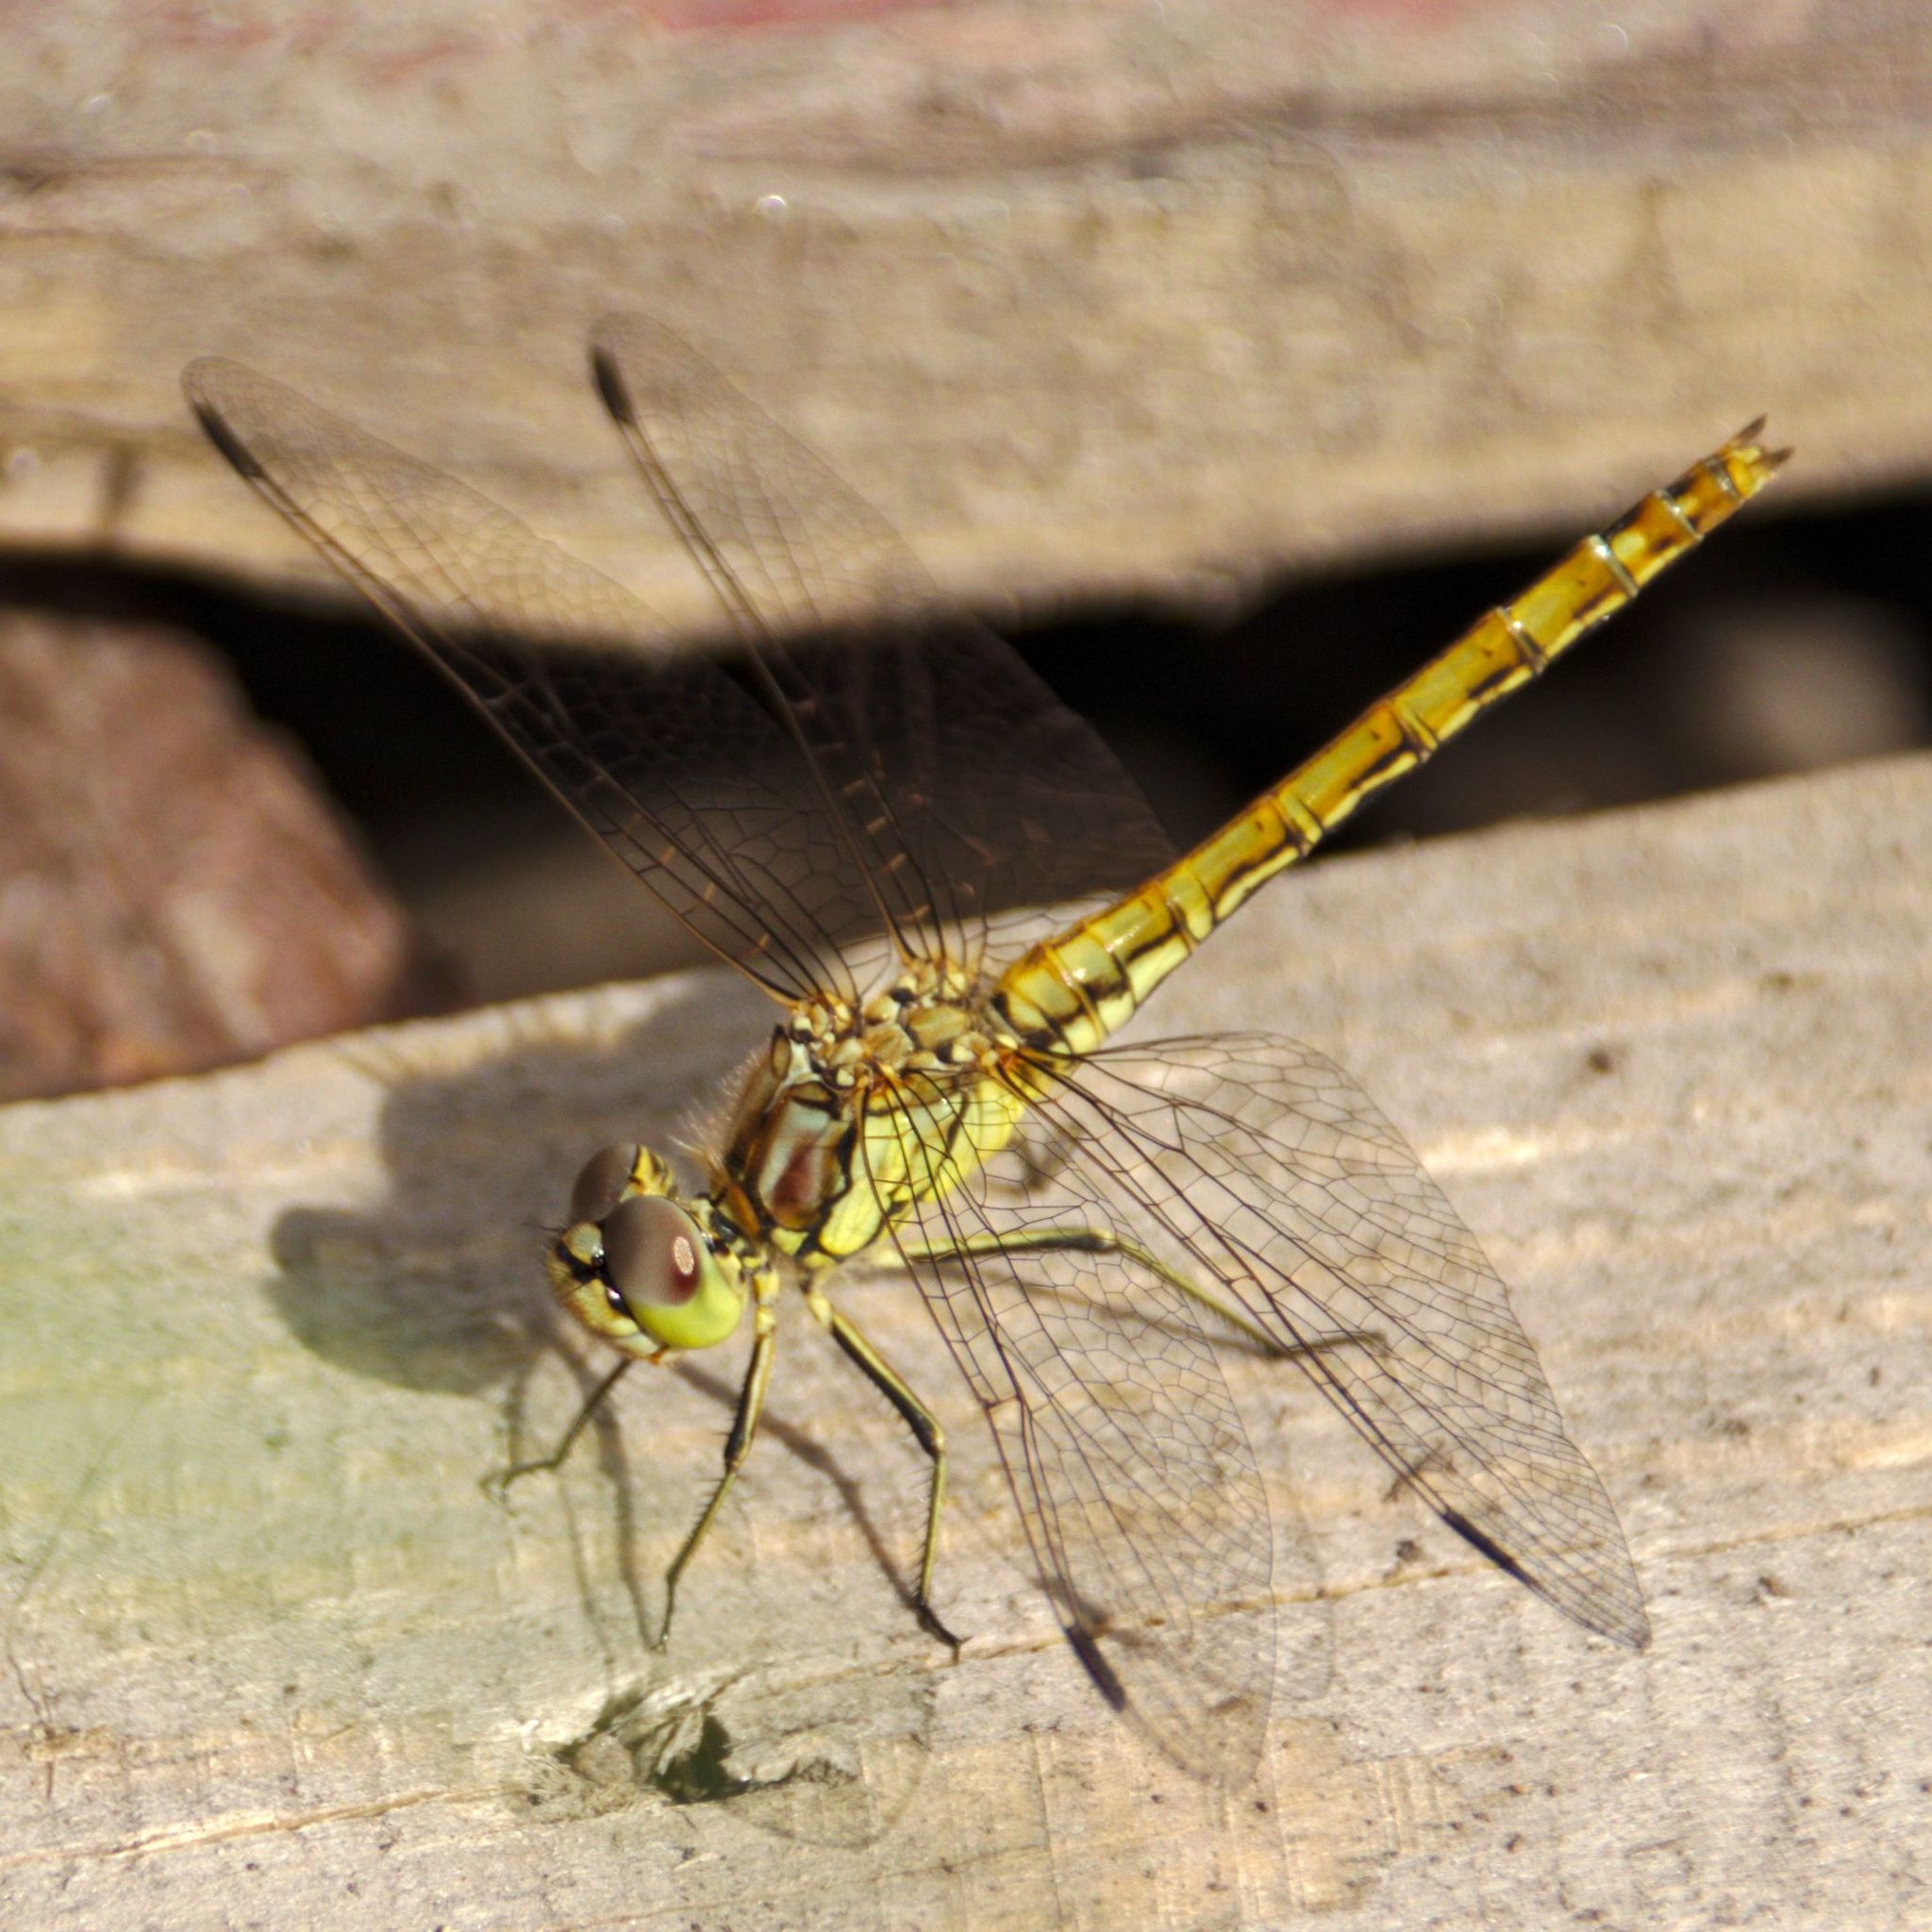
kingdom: Animalia
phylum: Arthropoda
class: Insecta
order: Odonata
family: Libellulidae
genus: Sympetrum
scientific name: Sympetrum vulgatum
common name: Vagrant darter
